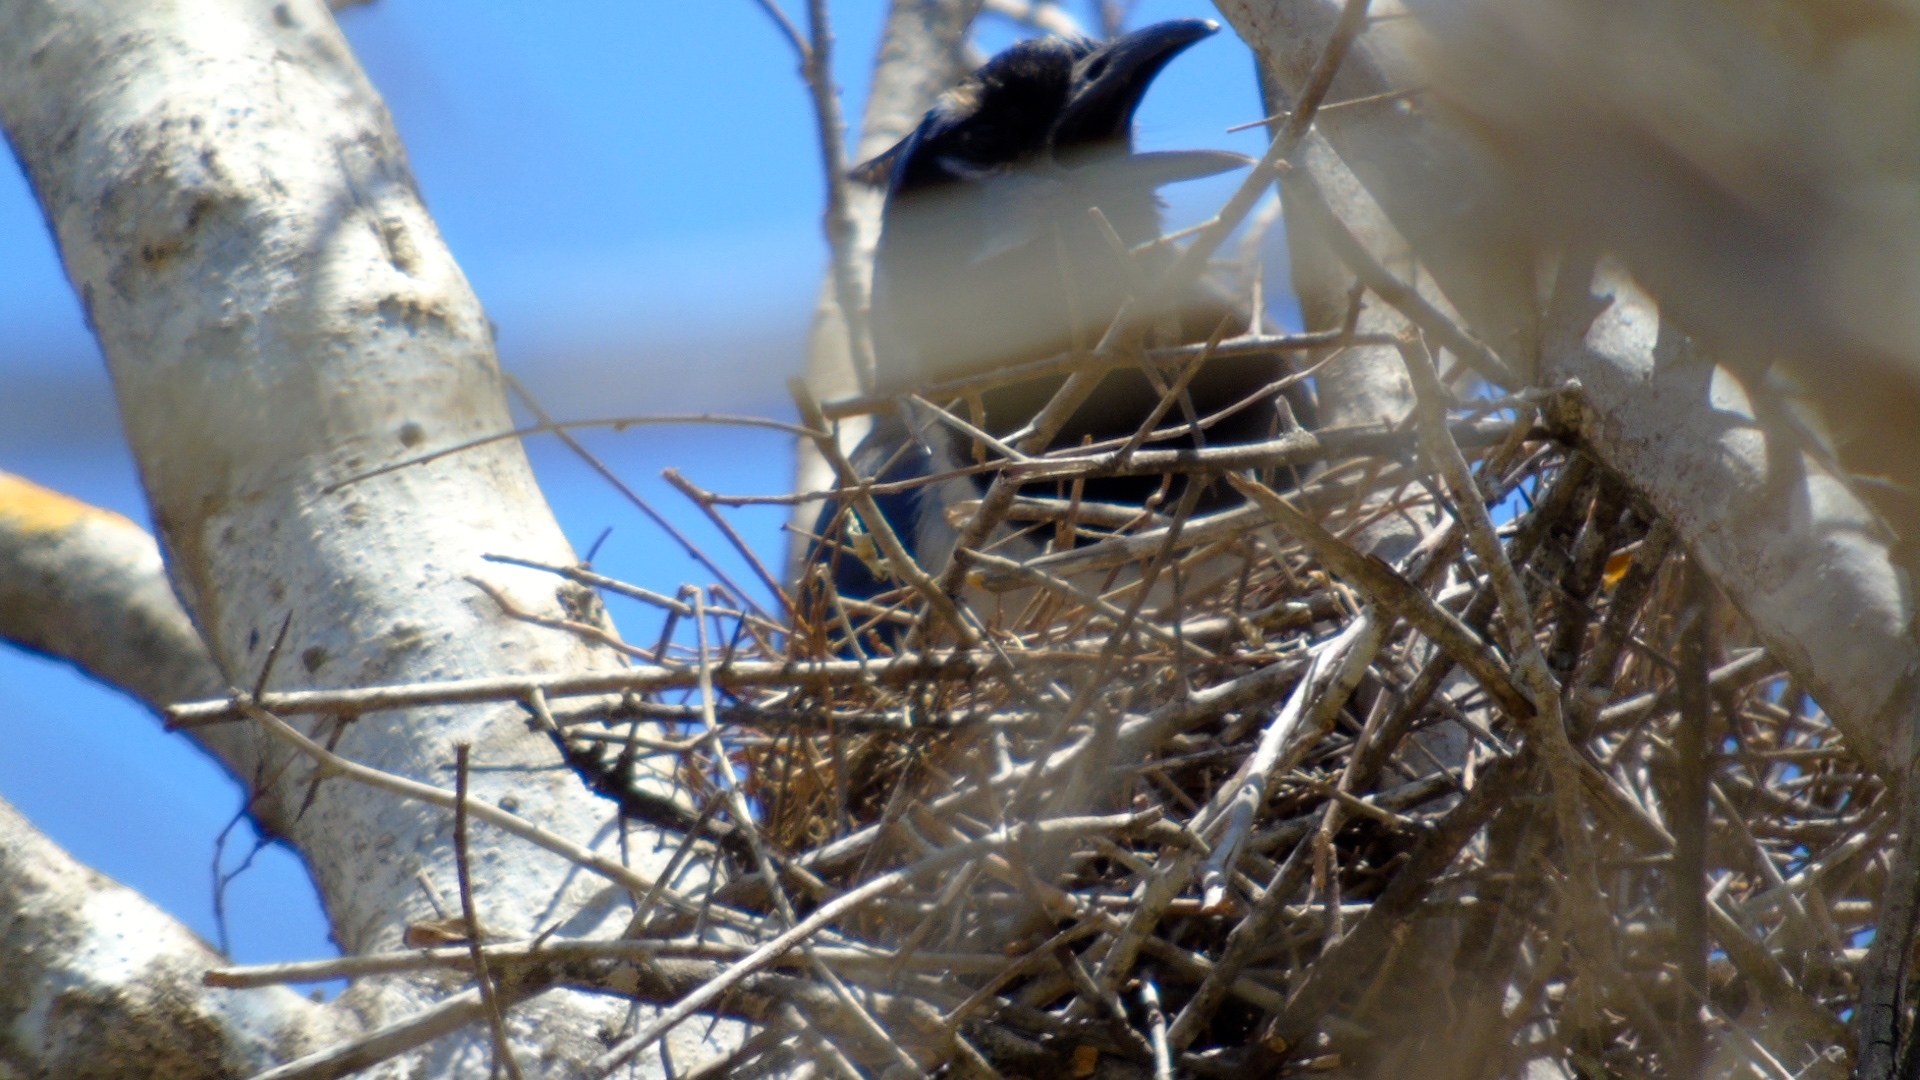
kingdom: Animalia
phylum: Chordata
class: Aves
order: Passeriformes
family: Corvidae
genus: Calocitta
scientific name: Calocitta colliei
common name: Black-throated magpie-jay
